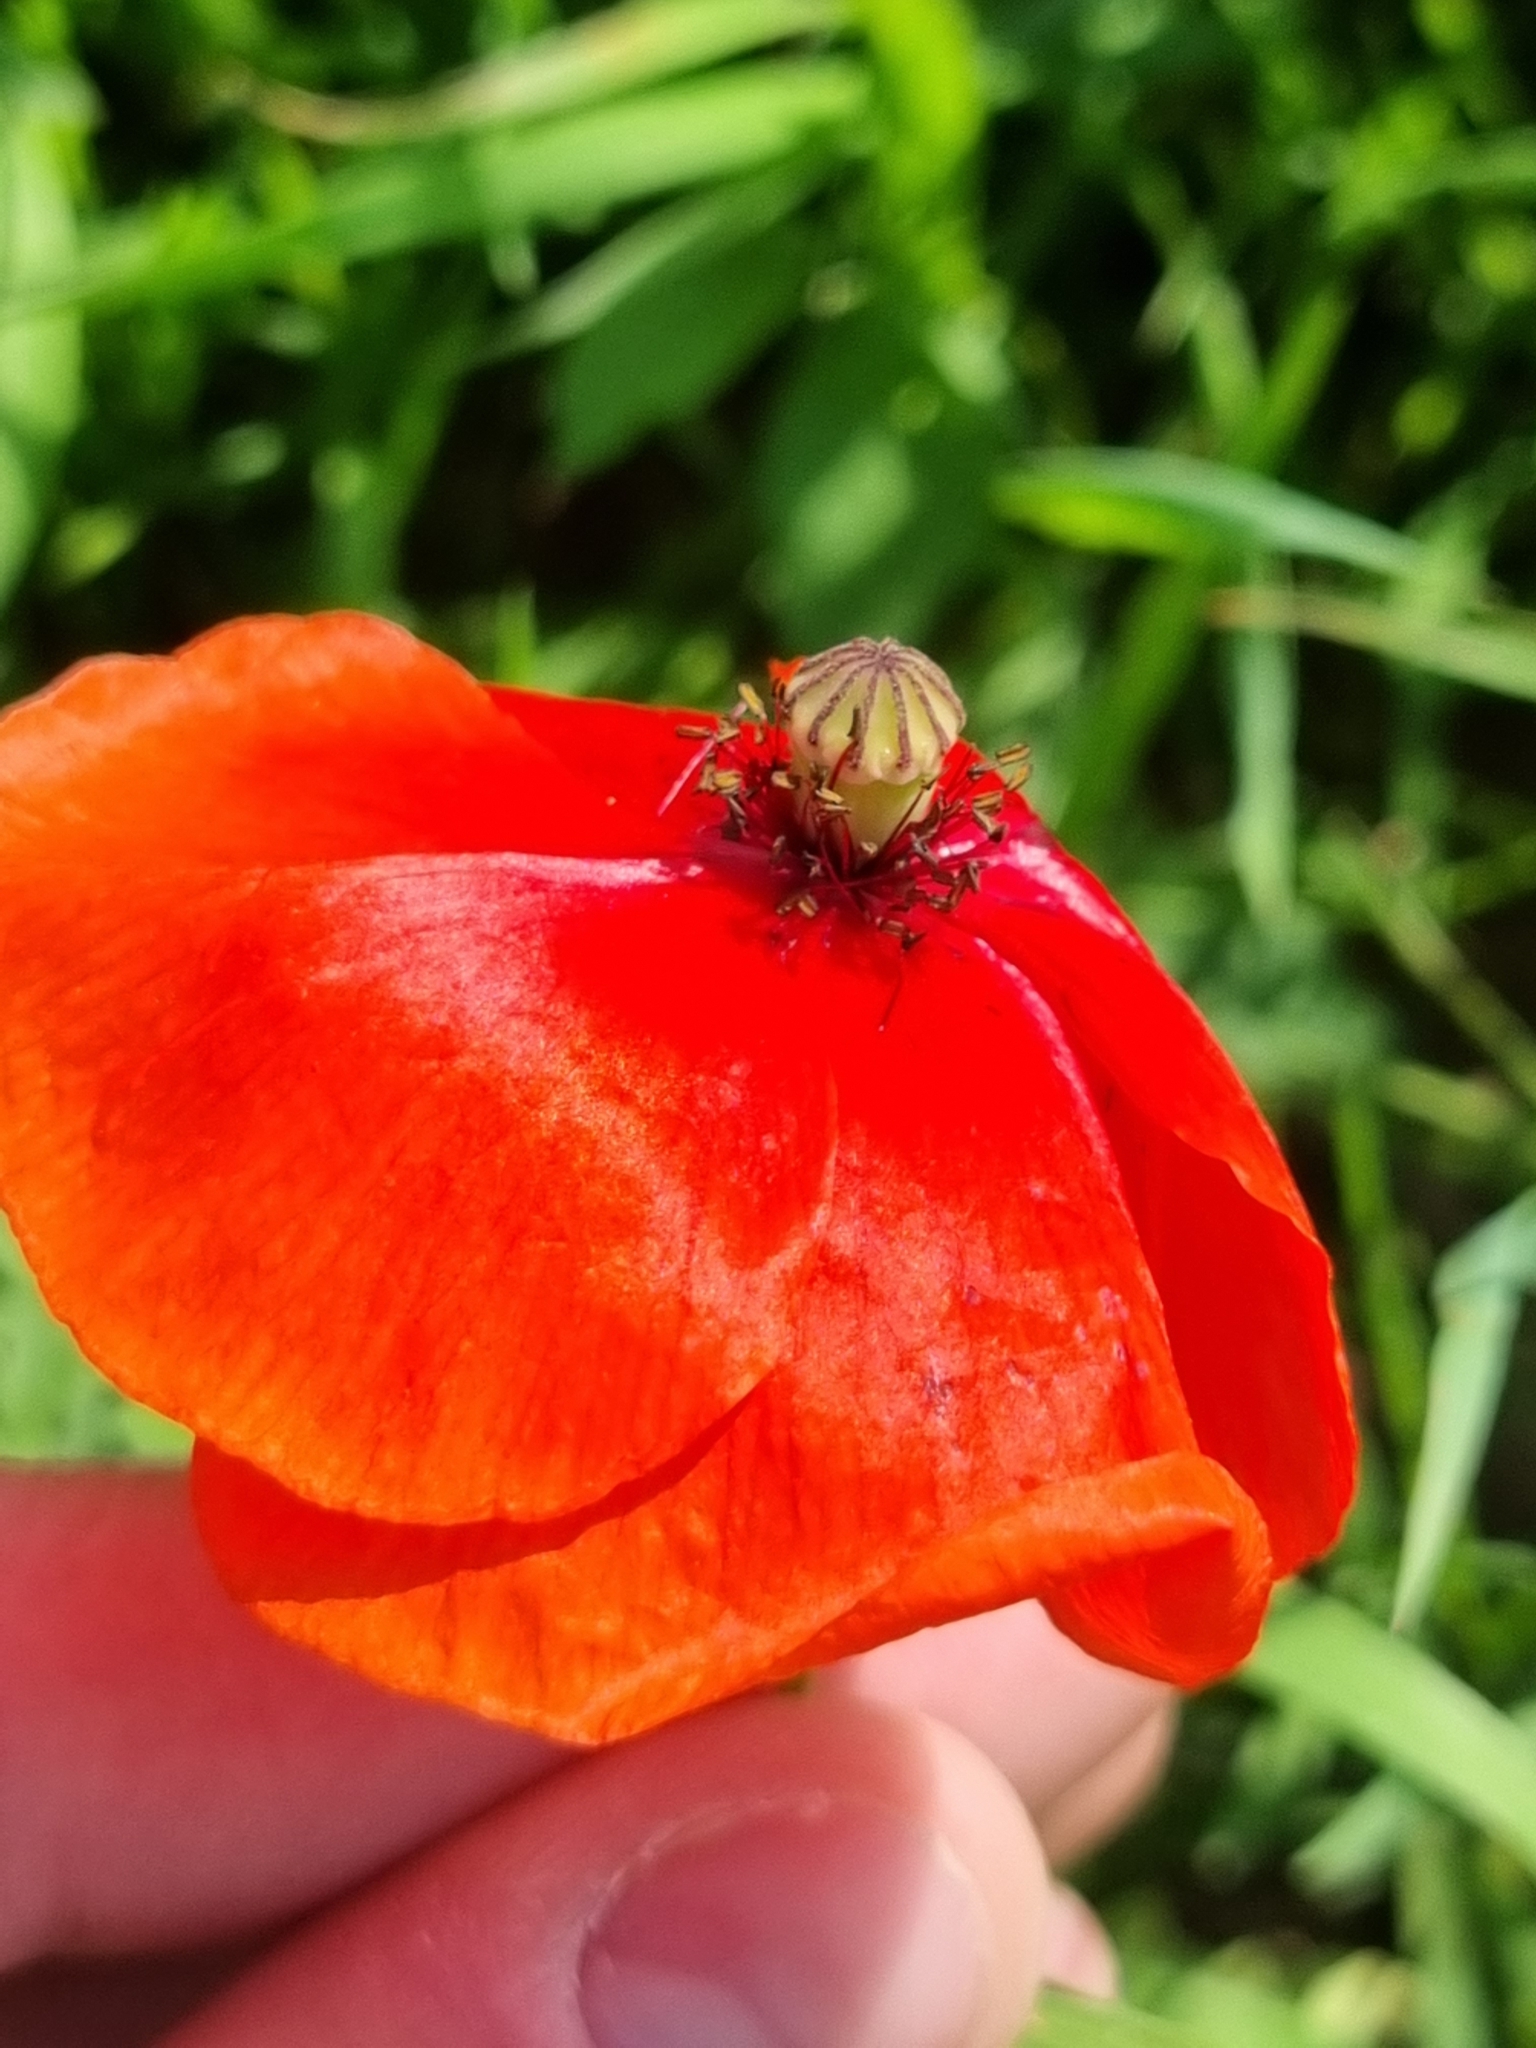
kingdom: Plantae
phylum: Tracheophyta
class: Magnoliopsida
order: Ranunculales
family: Papaveraceae
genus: Papaver
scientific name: Papaver rhoeas
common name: Corn poppy
